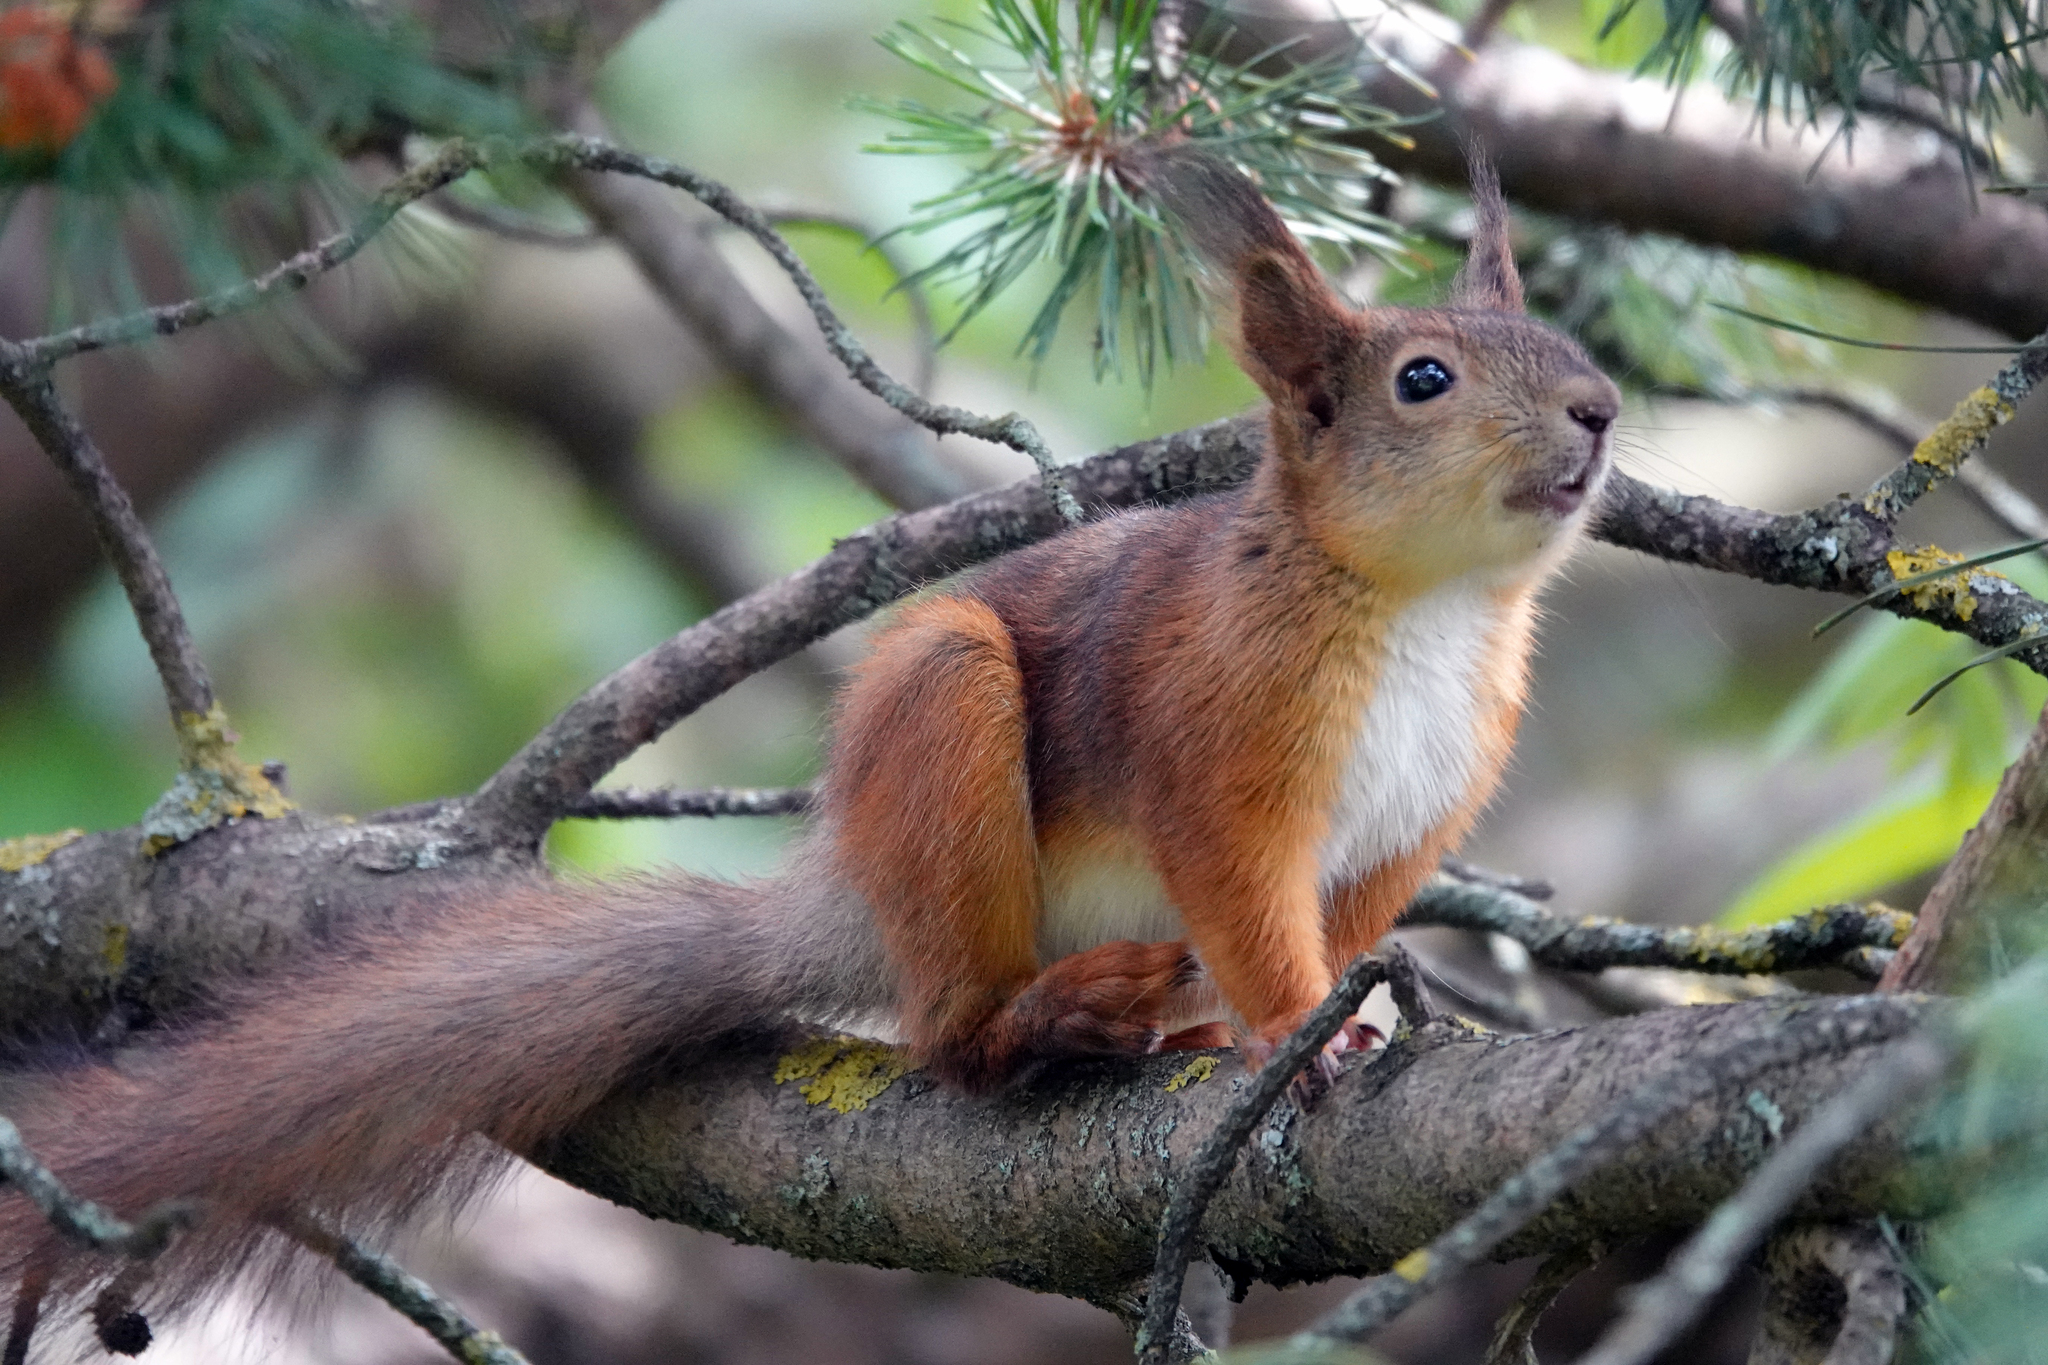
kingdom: Animalia
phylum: Chordata
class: Mammalia
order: Rodentia
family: Sciuridae
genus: Sciurus
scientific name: Sciurus vulgaris
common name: Eurasian red squirrel
